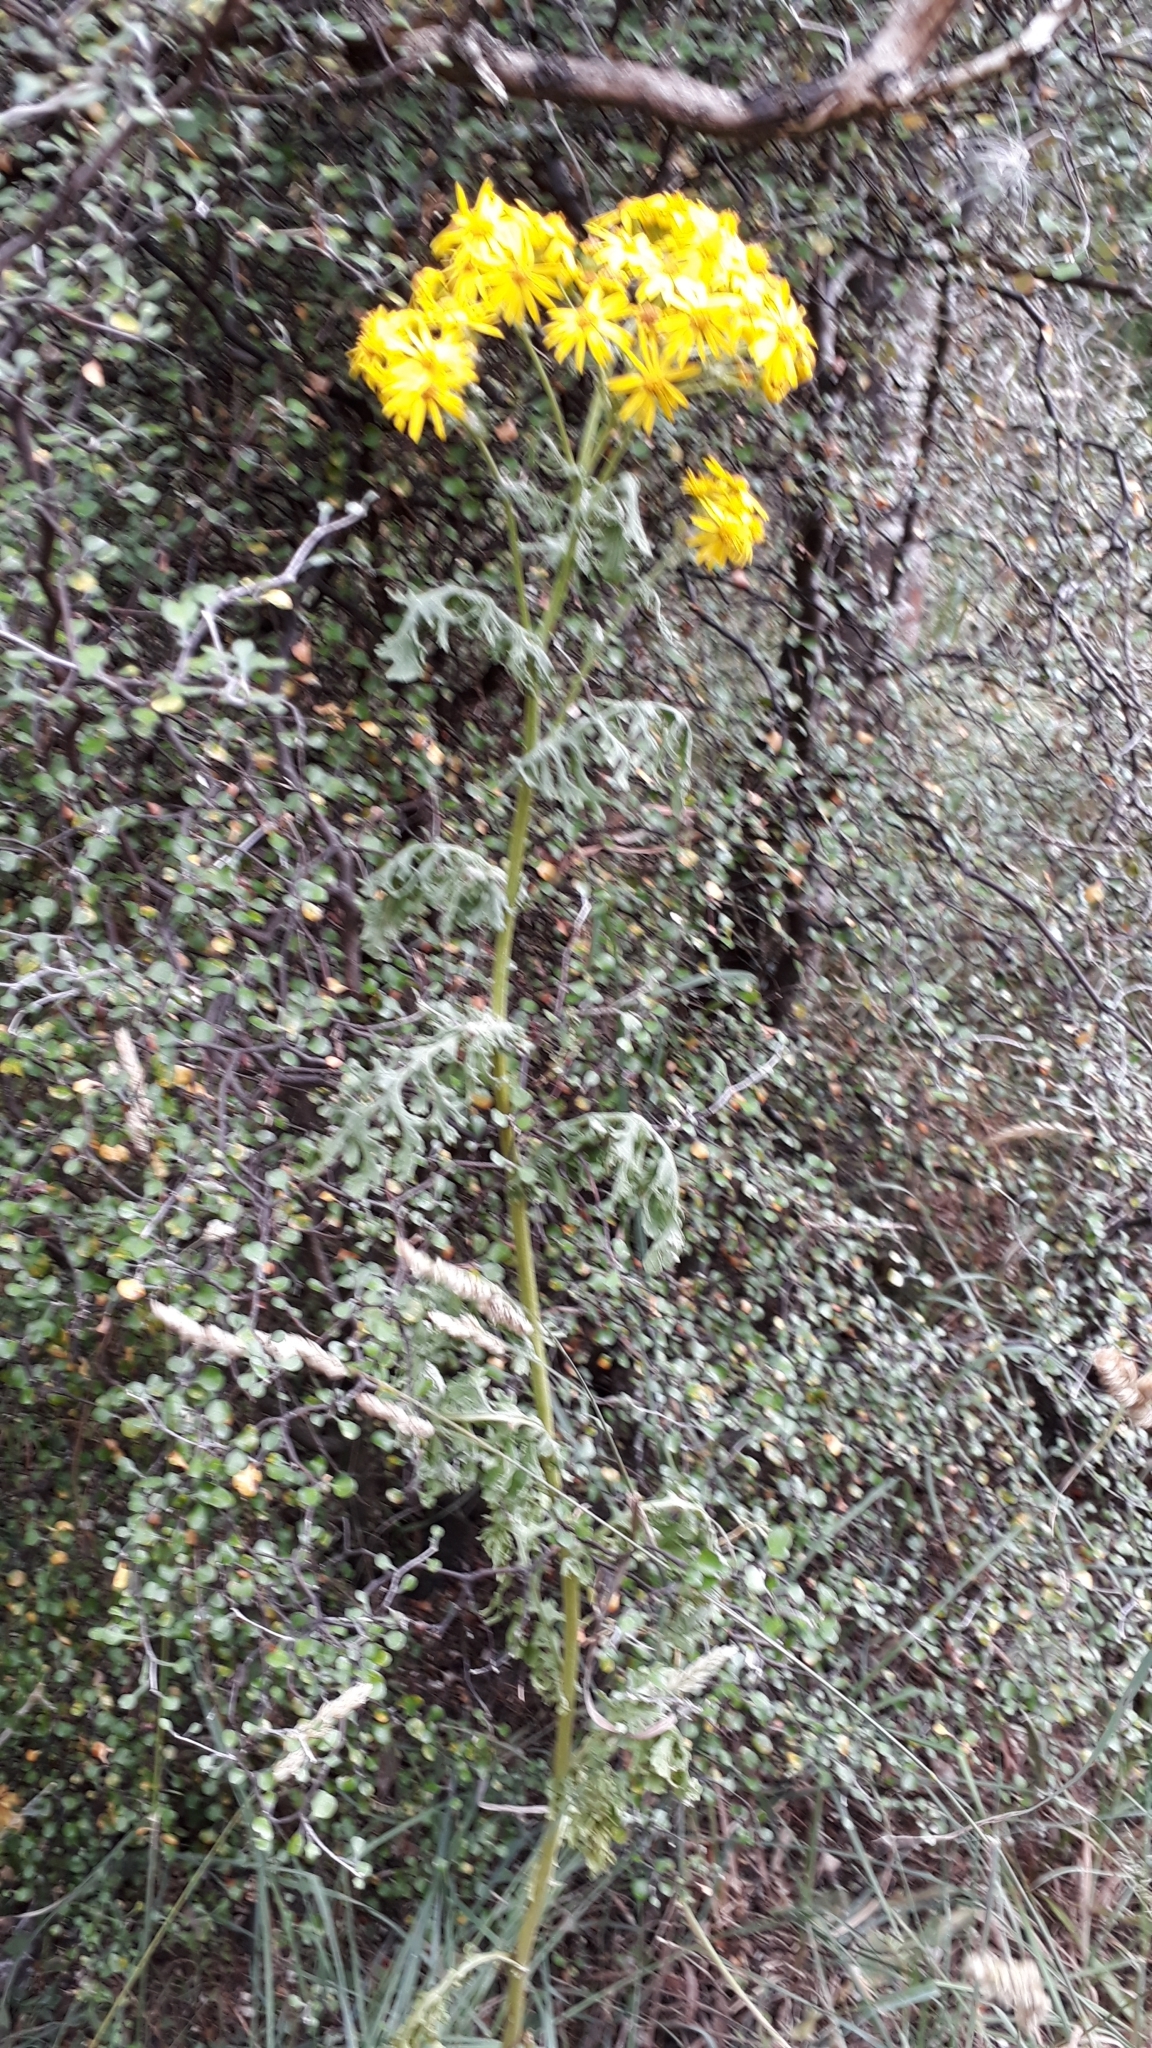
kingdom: Plantae
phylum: Tracheophyta
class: Magnoliopsida
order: Asterales
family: Asteraceae
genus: Jacobaea
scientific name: Jacobaea vulgaris
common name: Stinking willie
